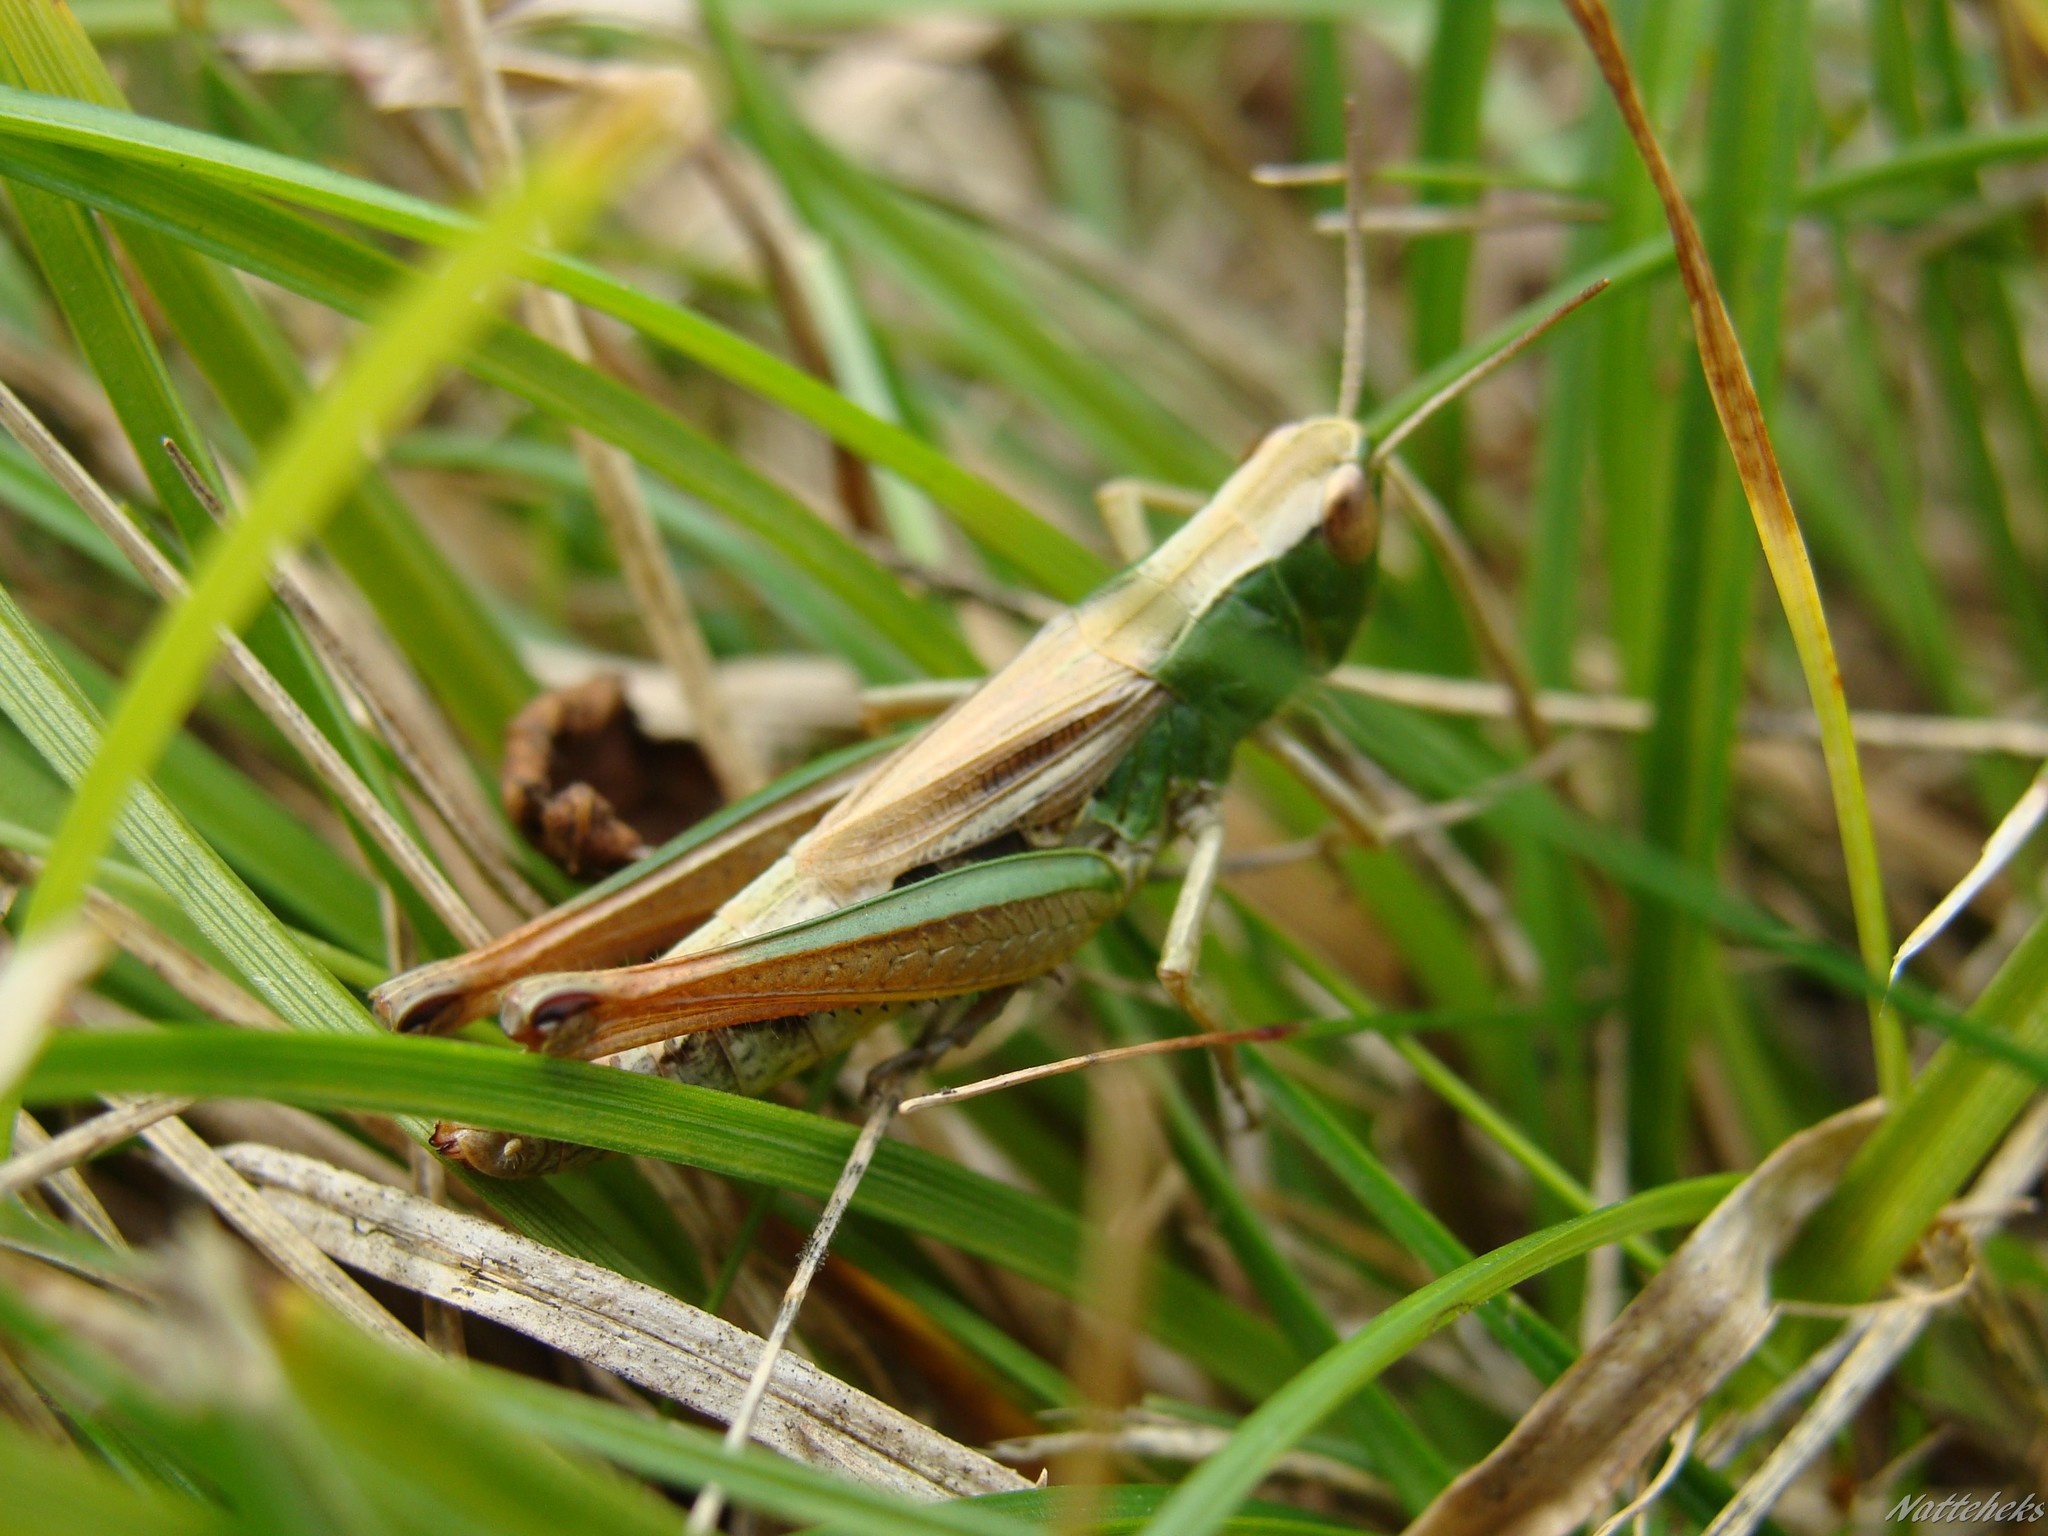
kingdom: Animalia
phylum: Arthropoda
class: Insecta
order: Orthoptera
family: Acrididae
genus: Pseudochorthippus
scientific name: Pseudochorthippus parallelus
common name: Meadow grasshopper
